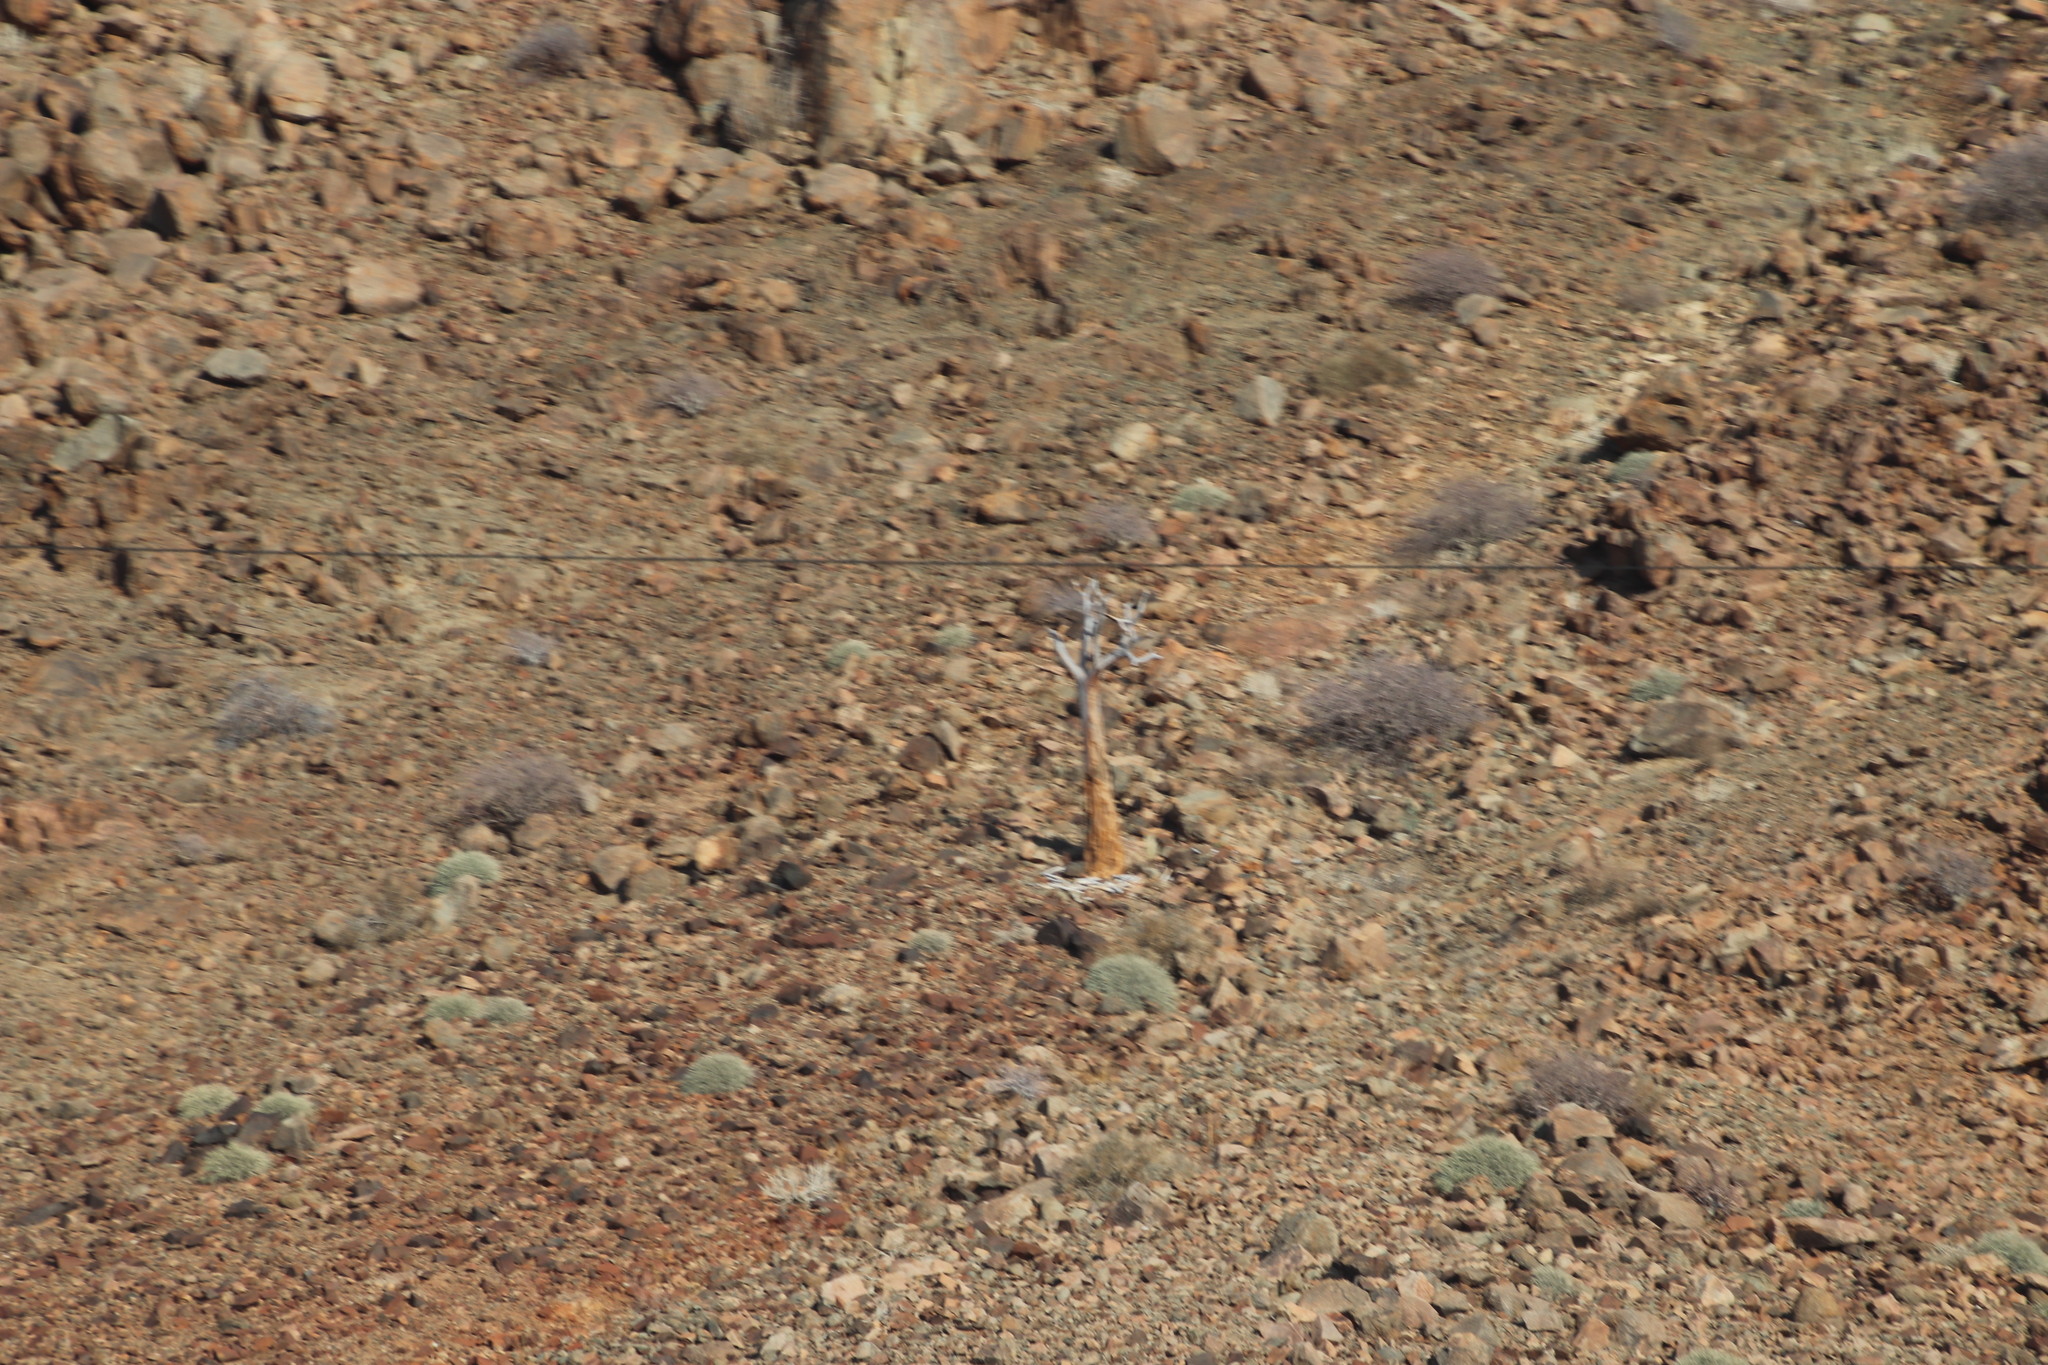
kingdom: Plantae
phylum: Tracheophyta
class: Liliopsida
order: Asparagales
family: Asphodelaceae
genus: Aloidendron
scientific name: Aloidendron dichotomum
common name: Quiver tree
